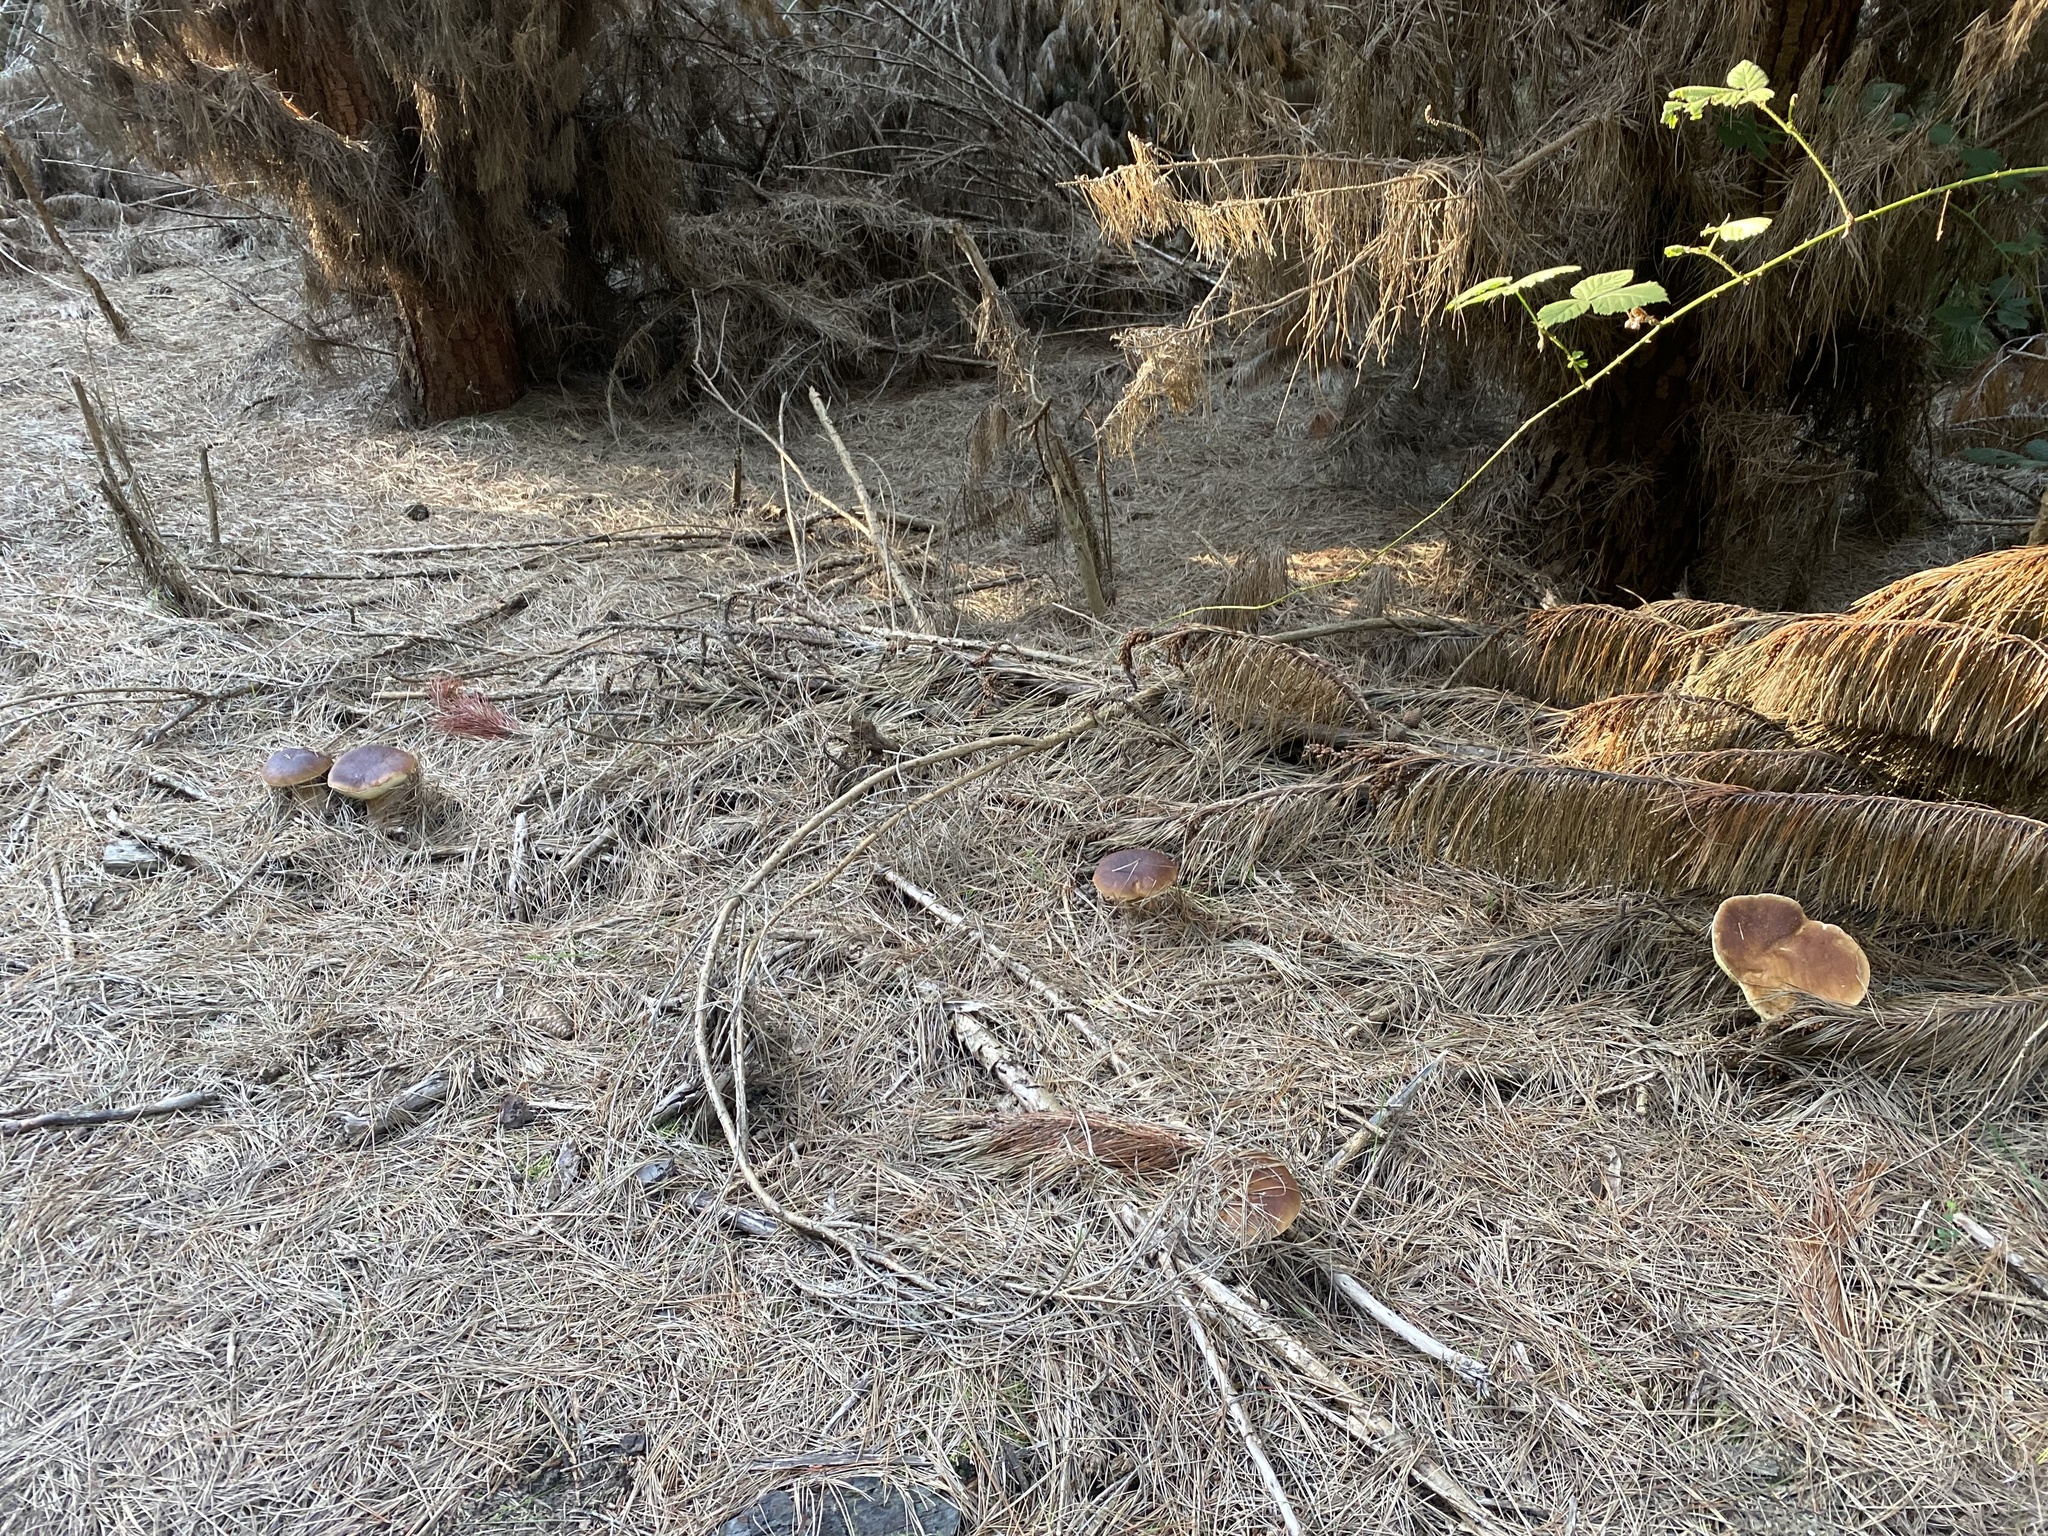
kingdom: Fungi
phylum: Basidiomycota
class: Agaricomycetes
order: Boletales
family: Boletaceae
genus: Boletus
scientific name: Boletus edulis
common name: Cep
